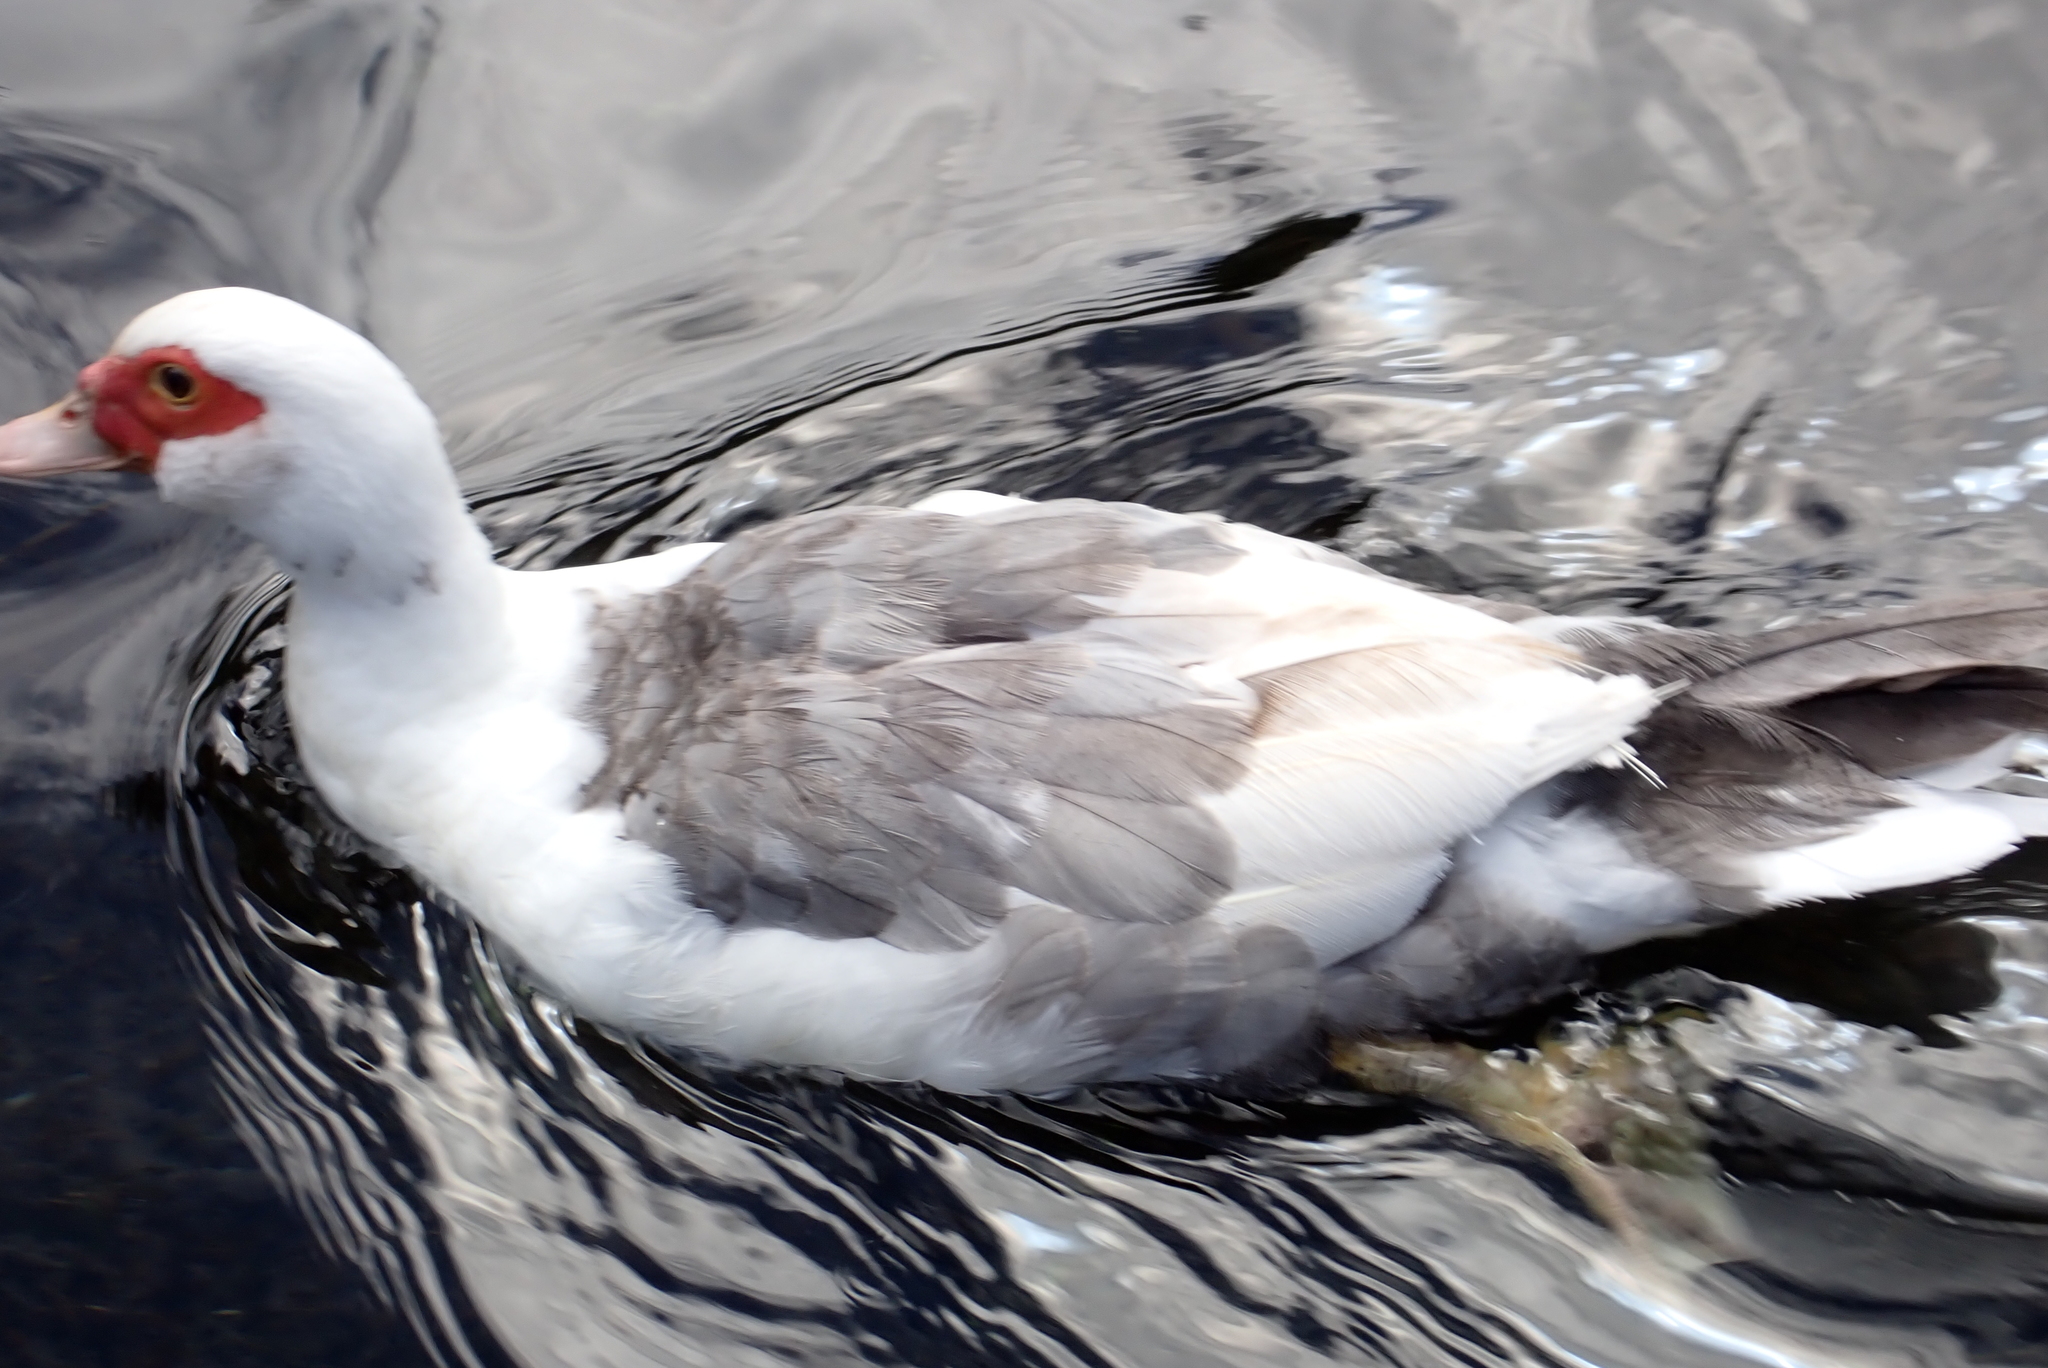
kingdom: Animalia
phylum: Chordata
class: Aves
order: Anseriformes
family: Anatidae
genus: Cairina
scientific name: Cairina moschata
